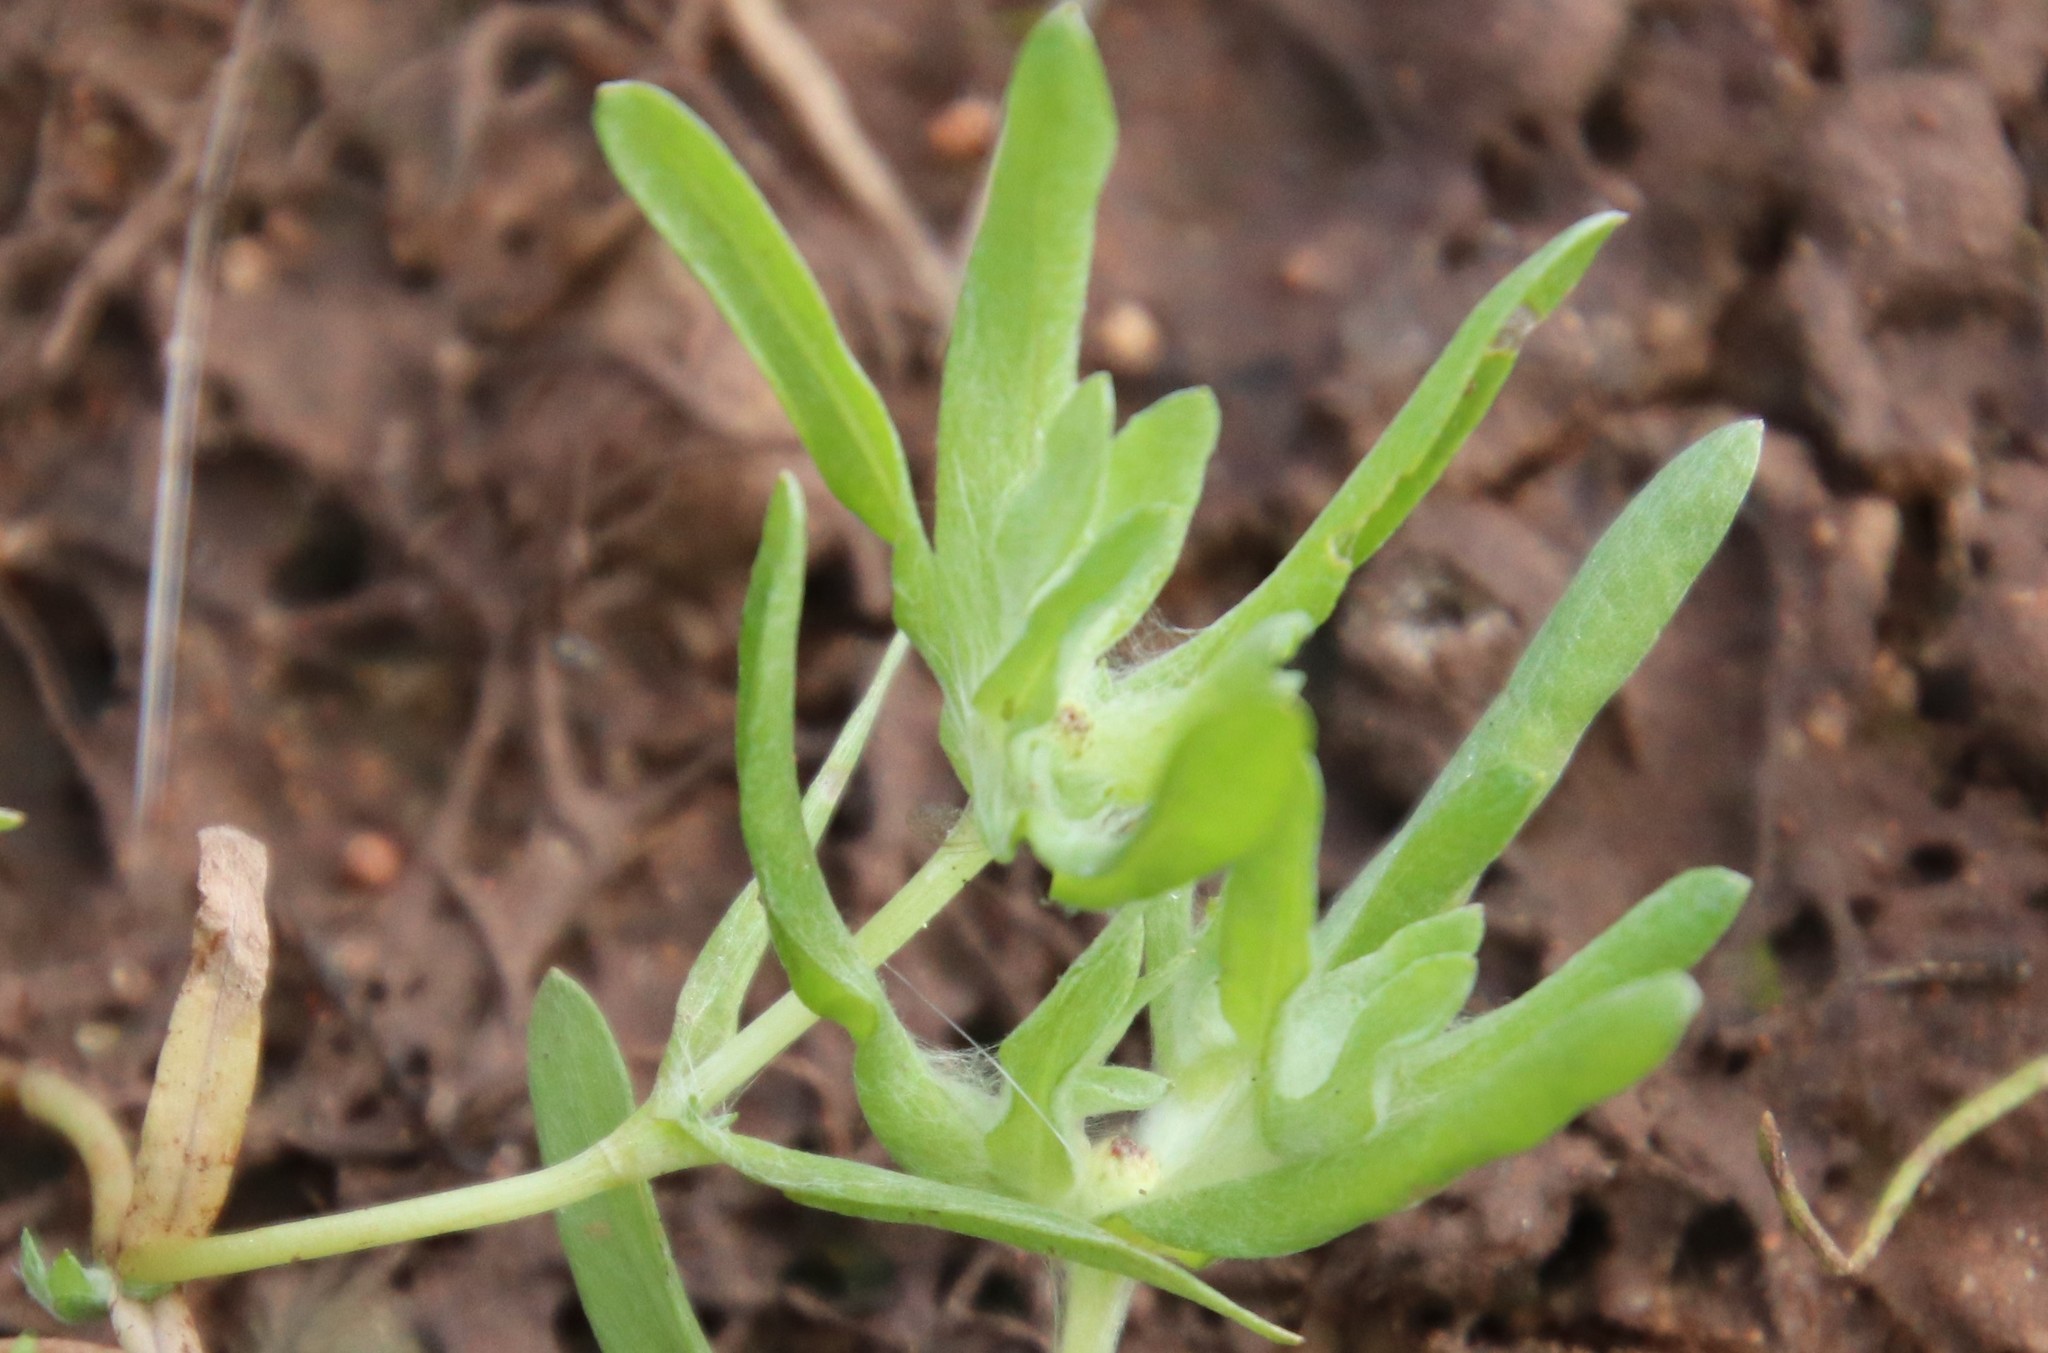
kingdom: Plantae
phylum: Tracheophyta
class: Magnoliopsida
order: Asterales
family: Asteraceae
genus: Psilocarphus
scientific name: Psilocarphus brevissimus
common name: Dwarf woollyheads
